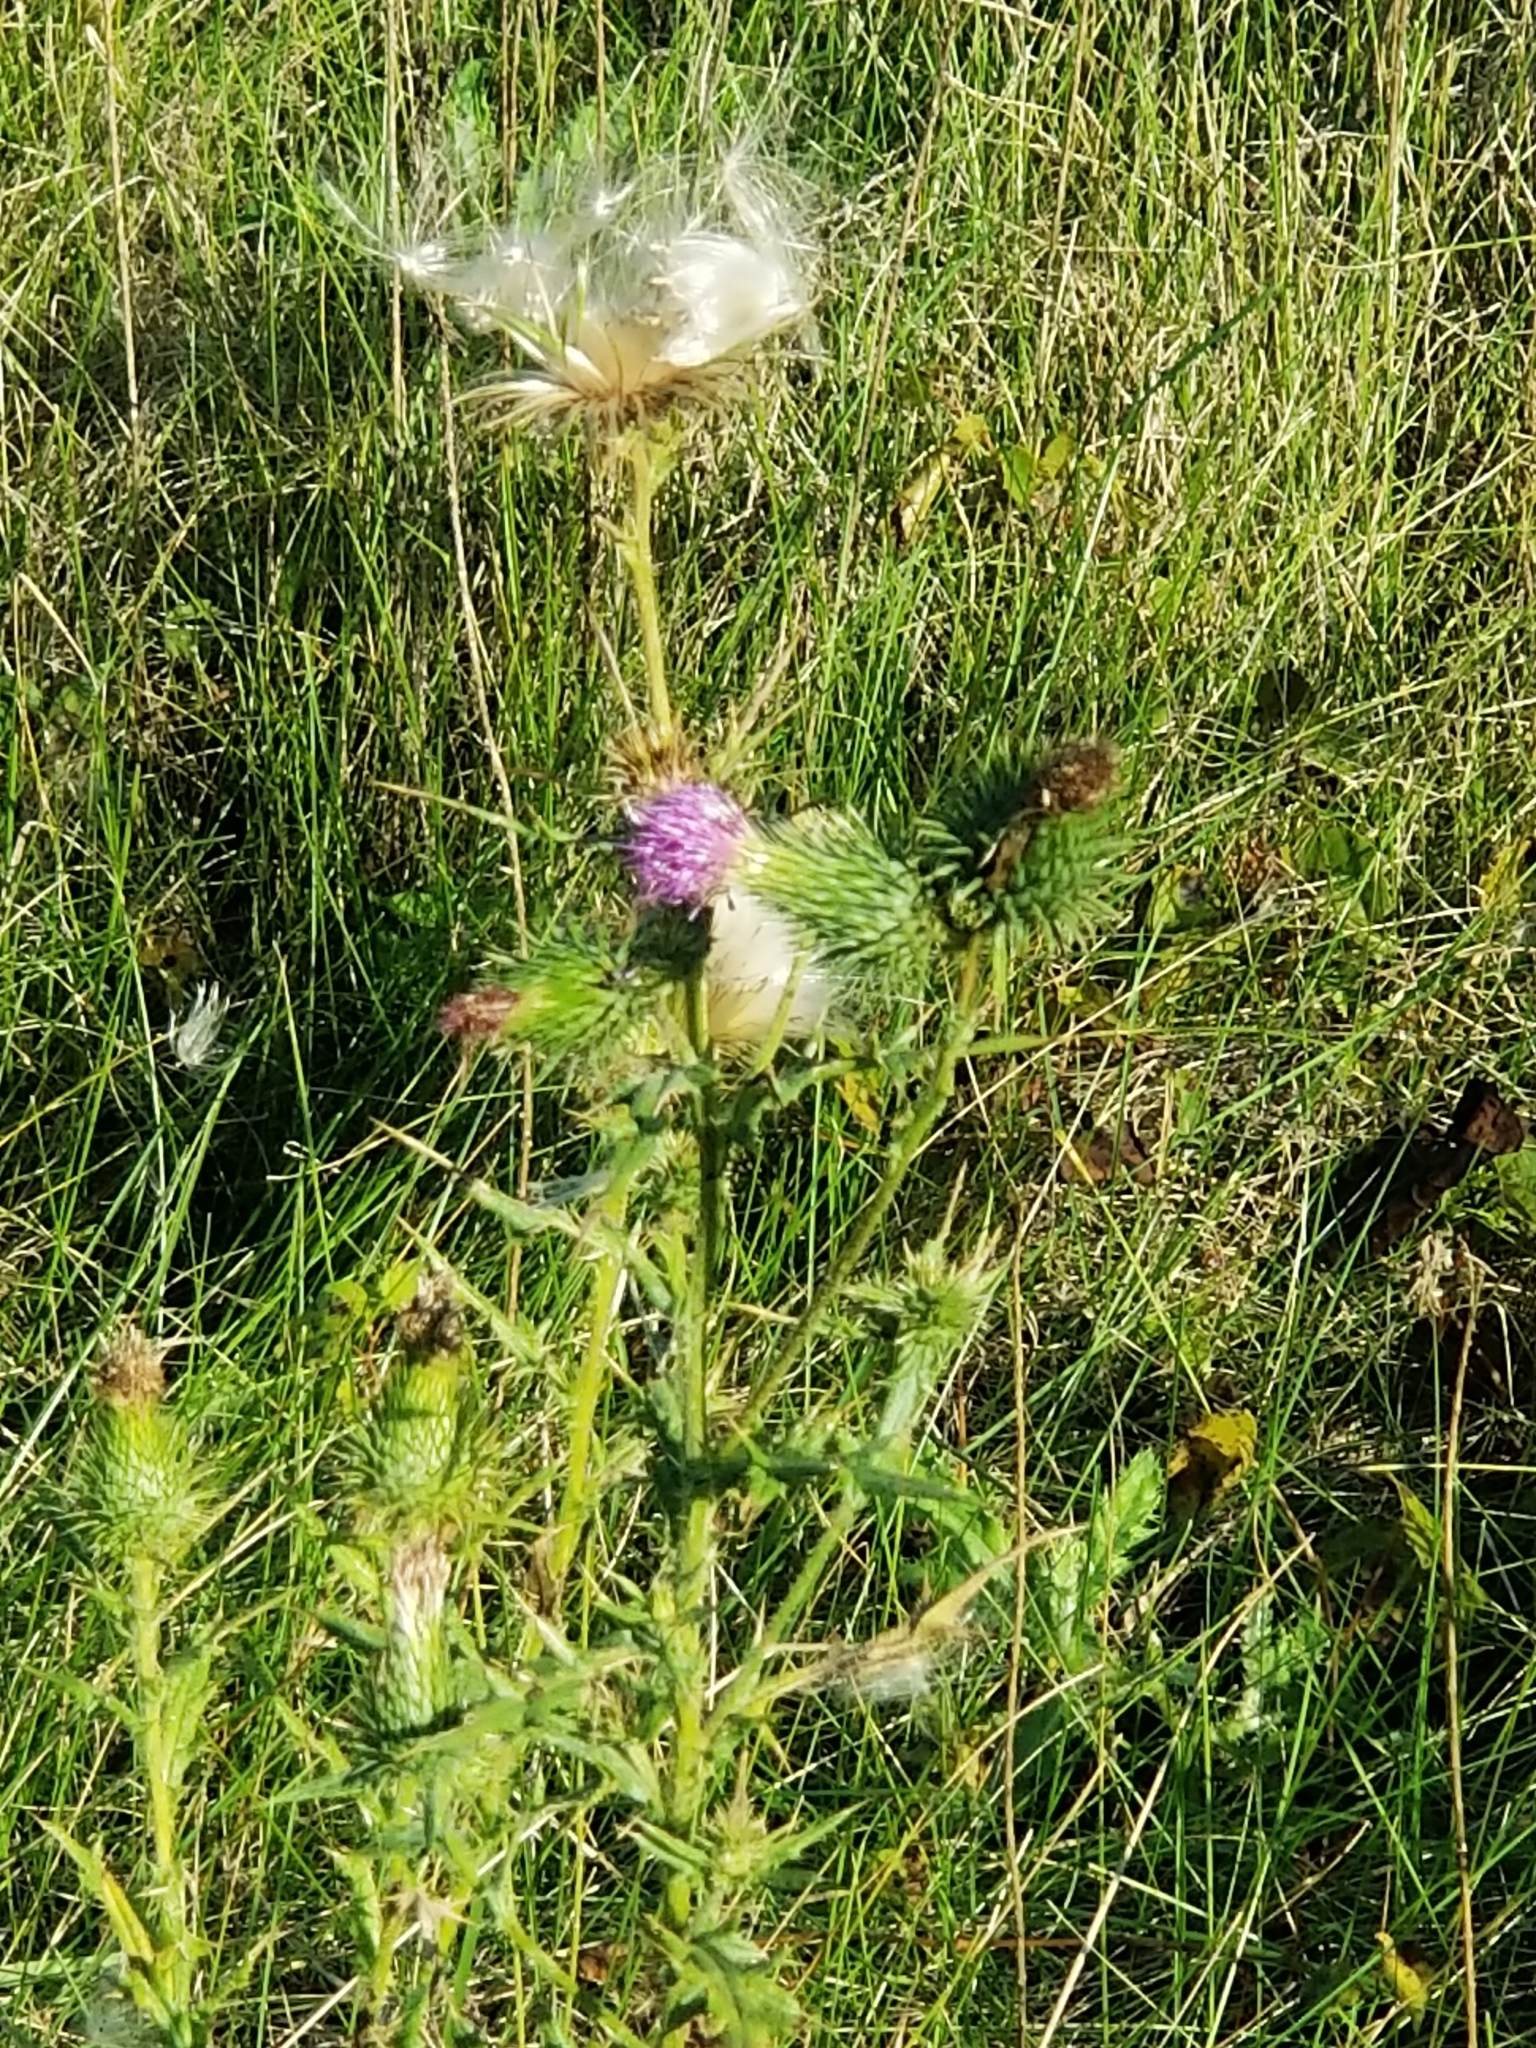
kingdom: Plantae
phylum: Tracheophyta
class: Magnoliopsida
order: Asterales
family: Asteraceae
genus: Cirsium
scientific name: Cirsium vulgare
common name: Bull thistle
